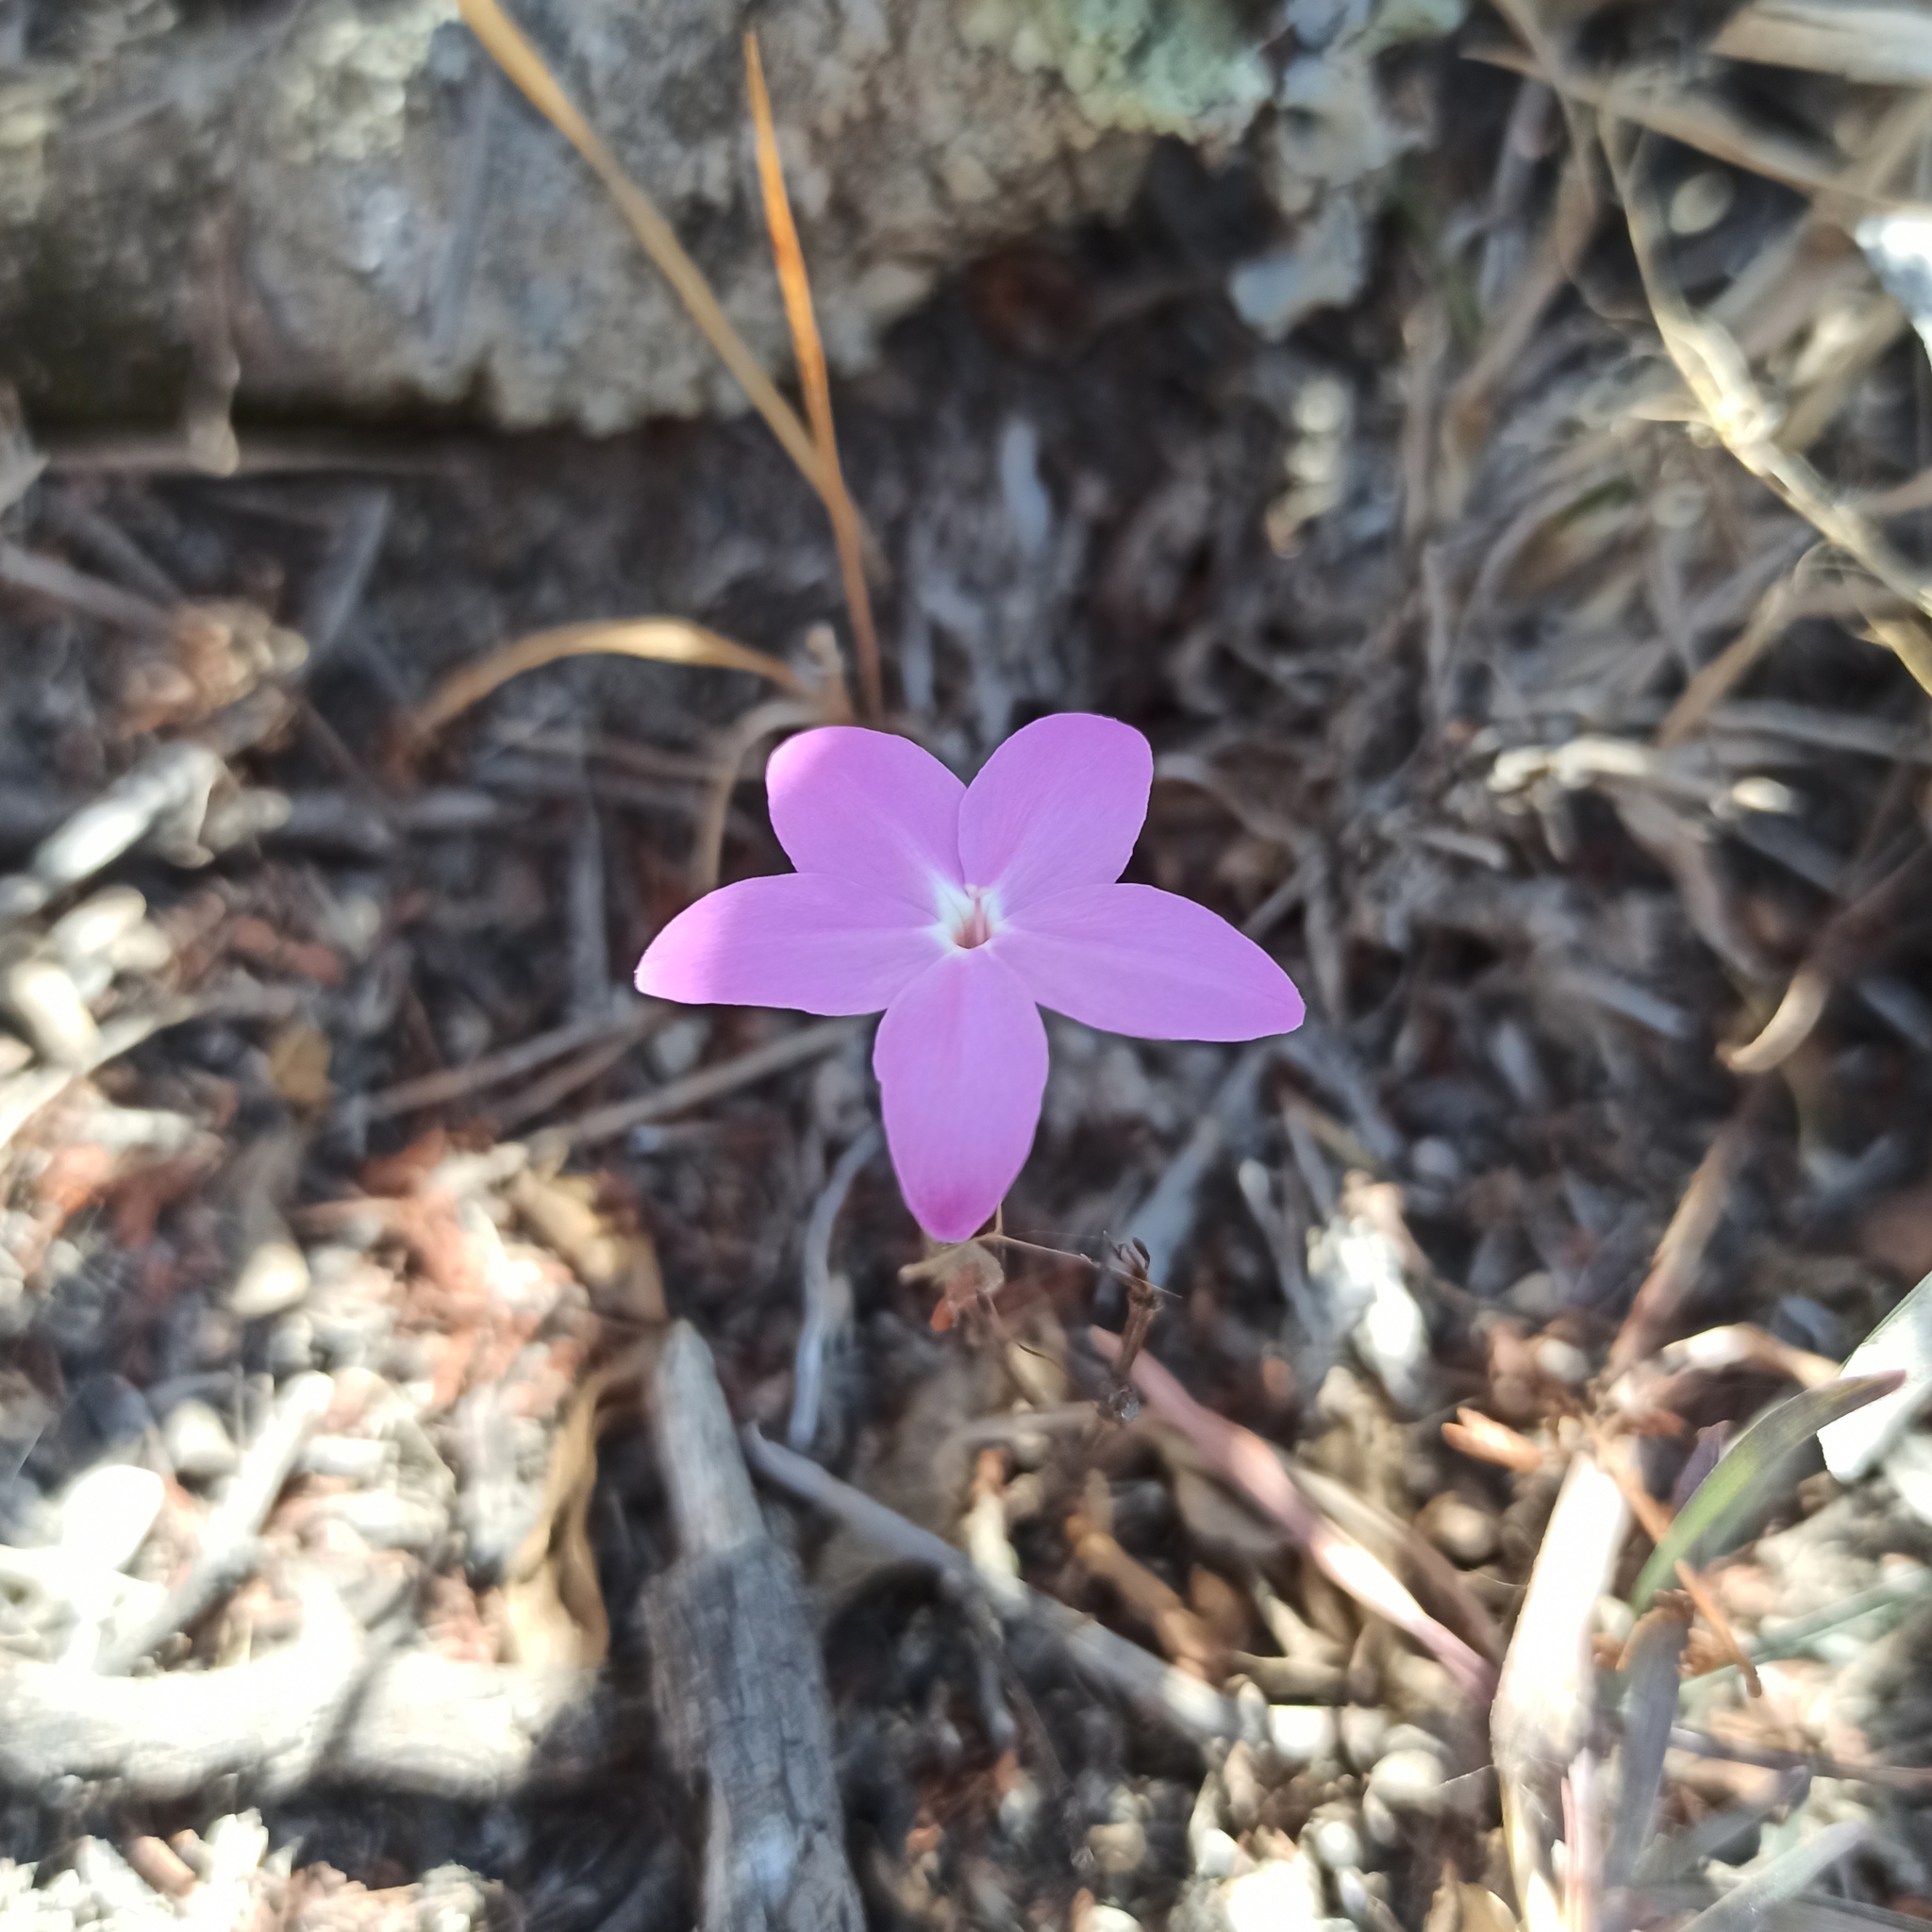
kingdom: Plantae
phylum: Tracheophyta
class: Magnoliopsida
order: Lamiales
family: Acanthaceae
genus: Pseuderanthemum
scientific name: Pseuderanthemum praecox
